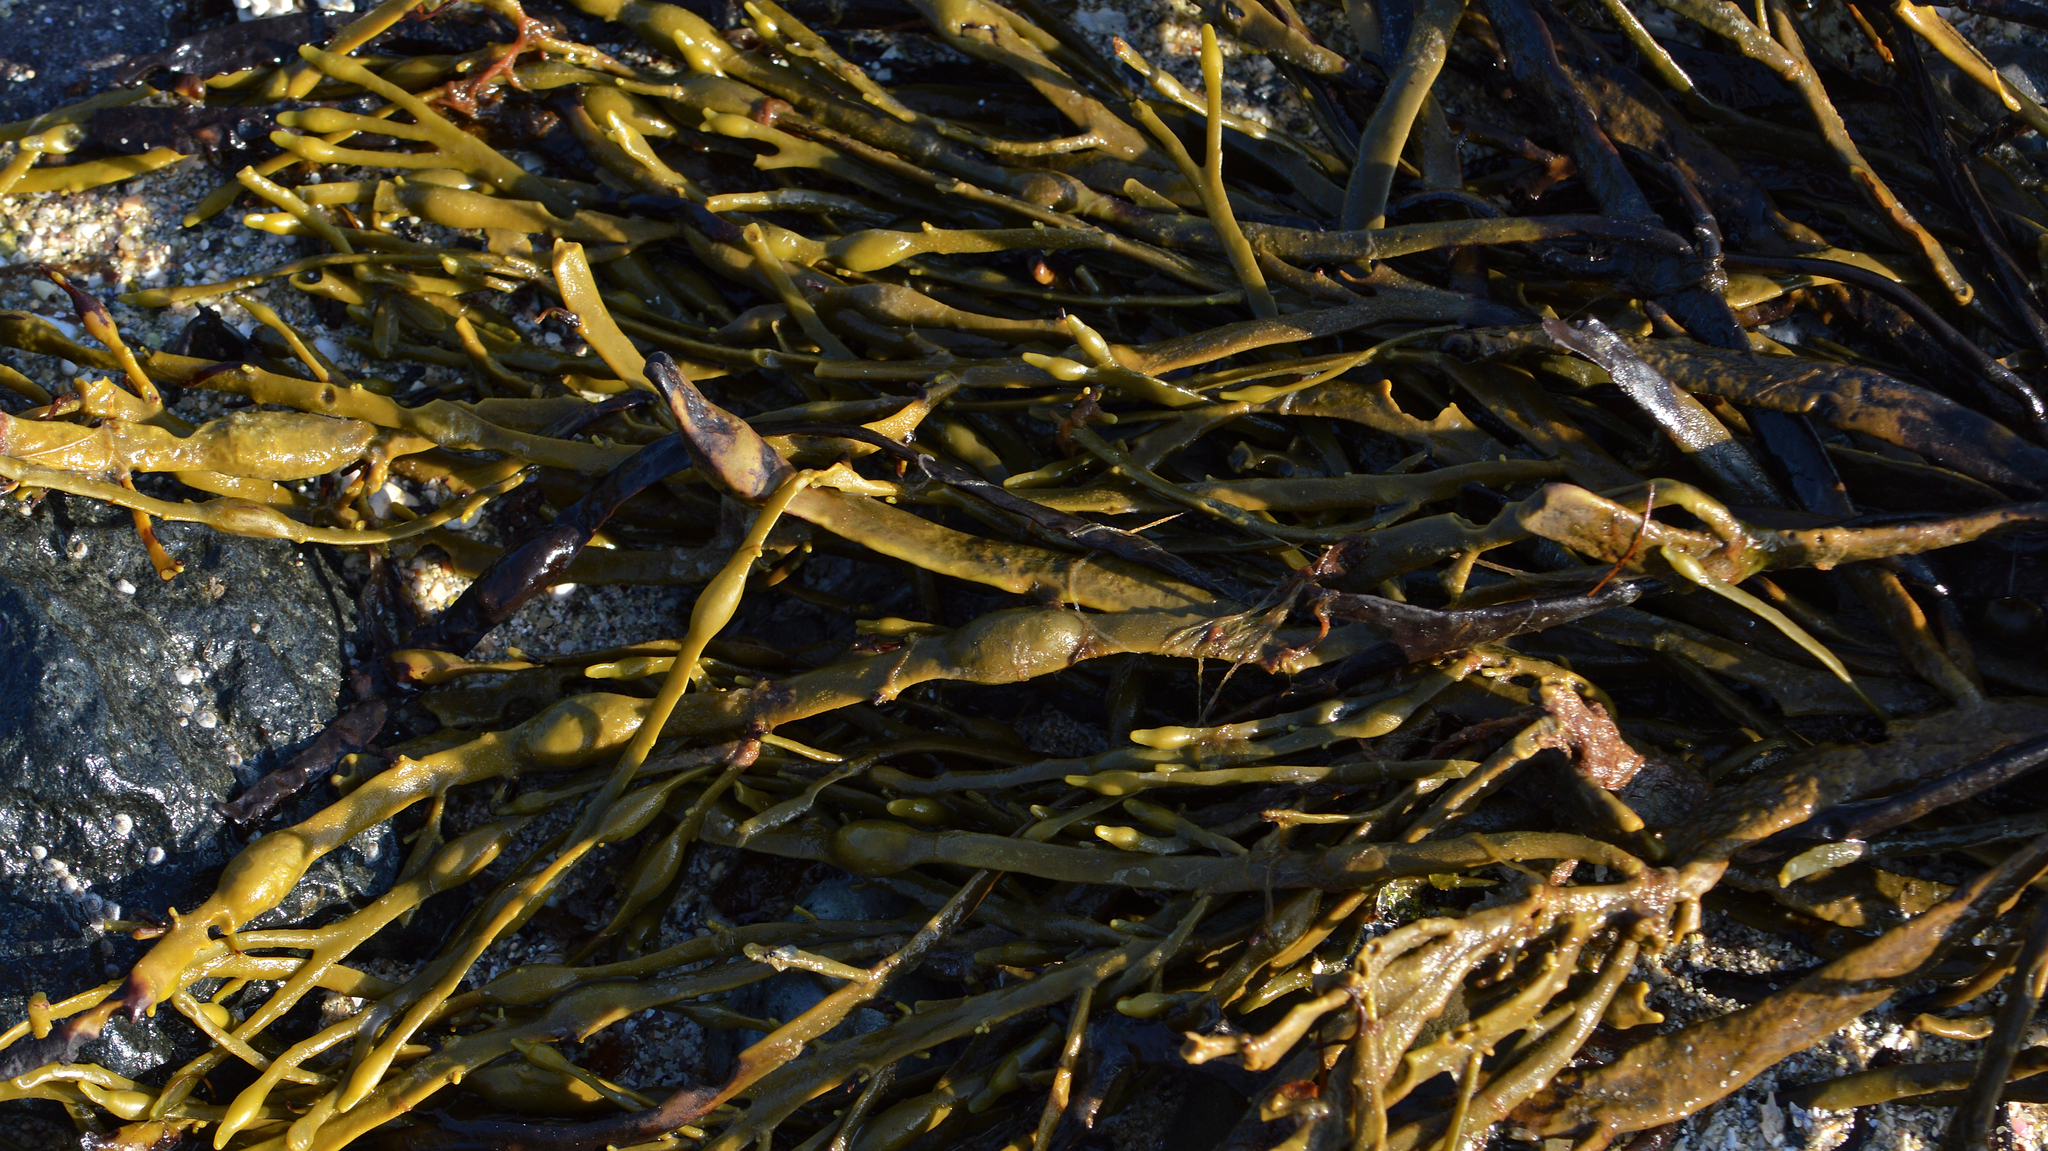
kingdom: Chromista
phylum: Ochrophyta
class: Phaeophyceae
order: Fucales
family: Fucaceae
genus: Ascophyllum
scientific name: Ascophyllum nodosum
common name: Knotted wrack
